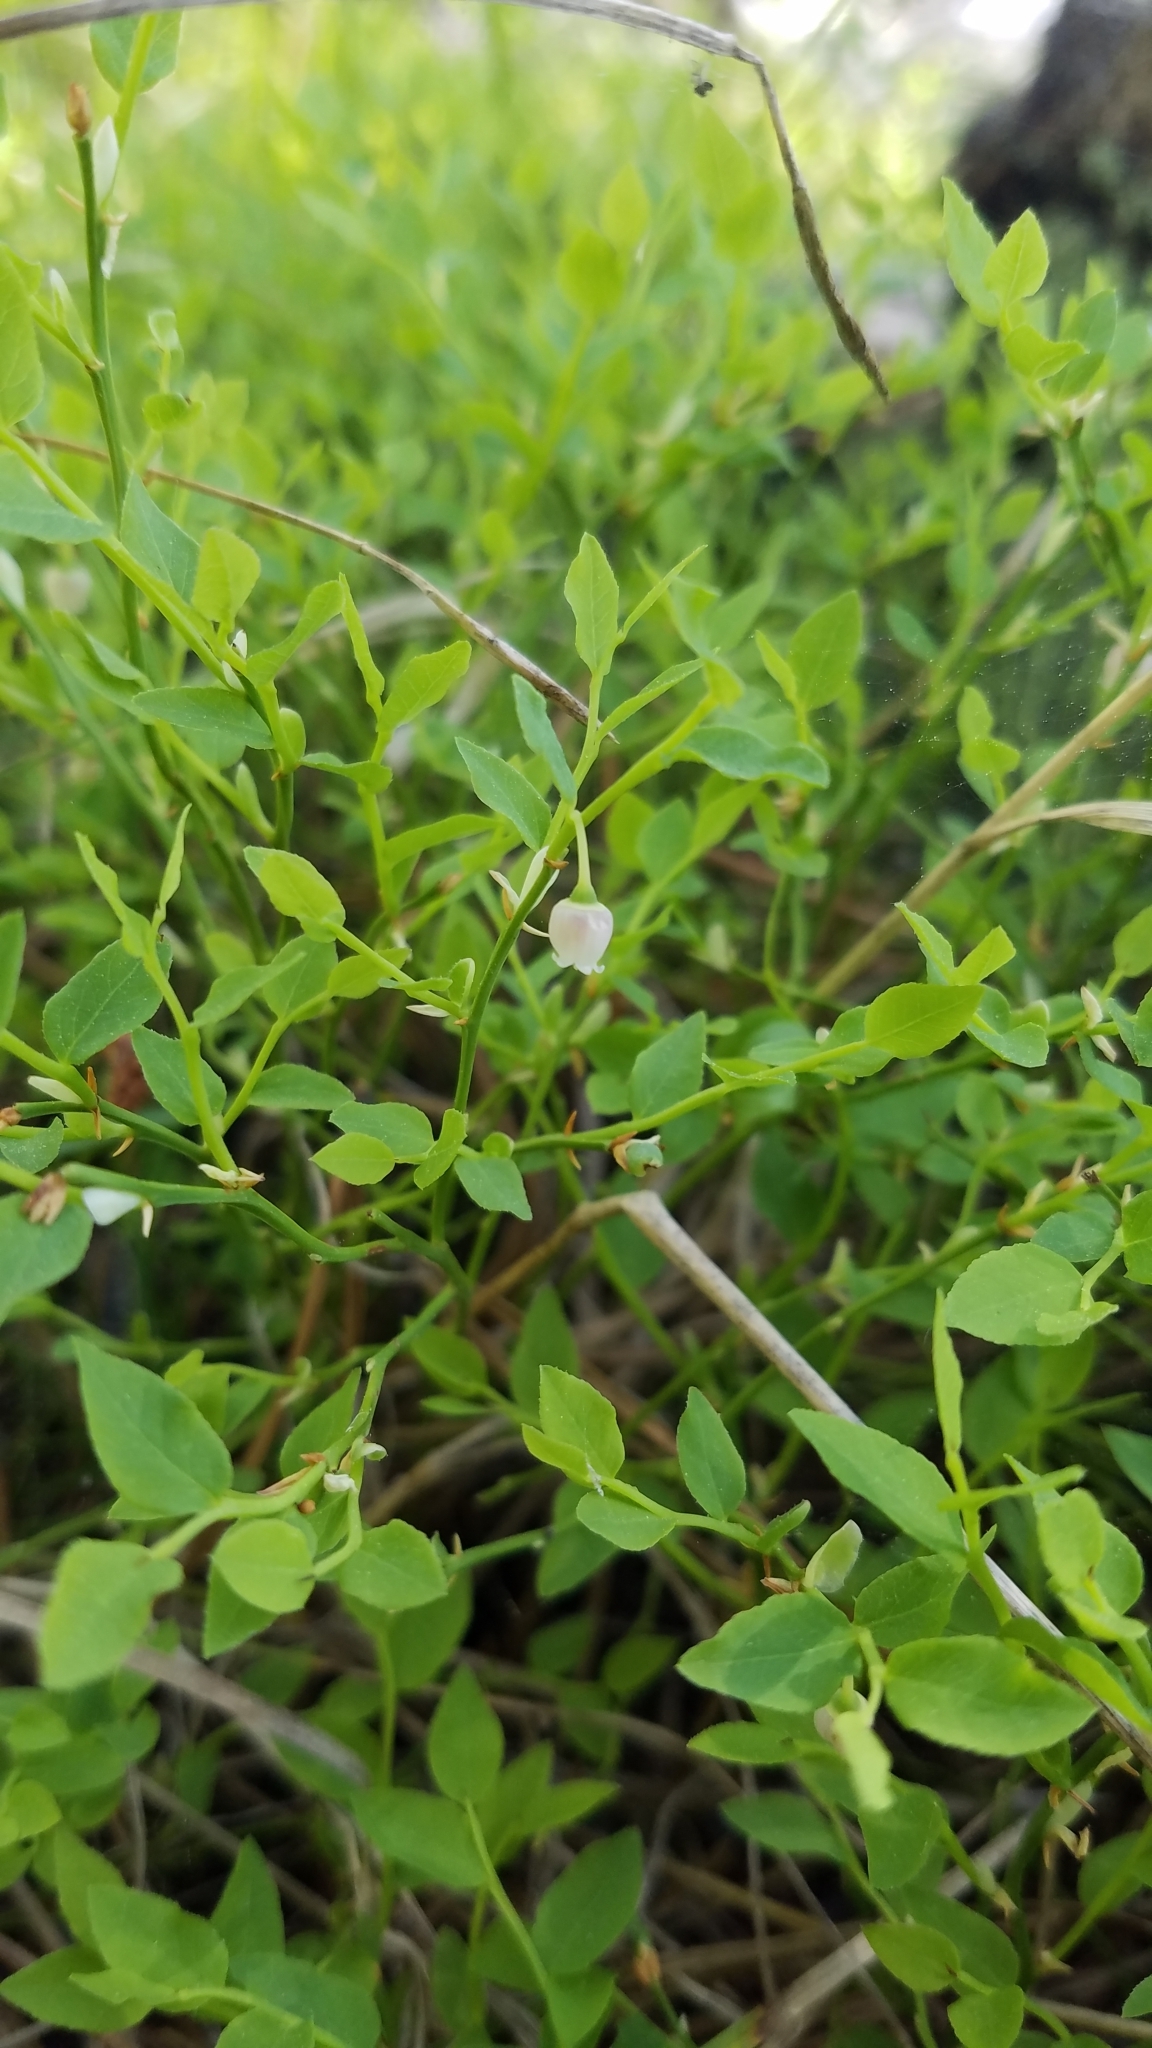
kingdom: Plantae
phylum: Tracheophyta
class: Magnoliopsida
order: Ericales
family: Ericaceae
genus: Vaccinium
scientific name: Vaccinium scoparium
